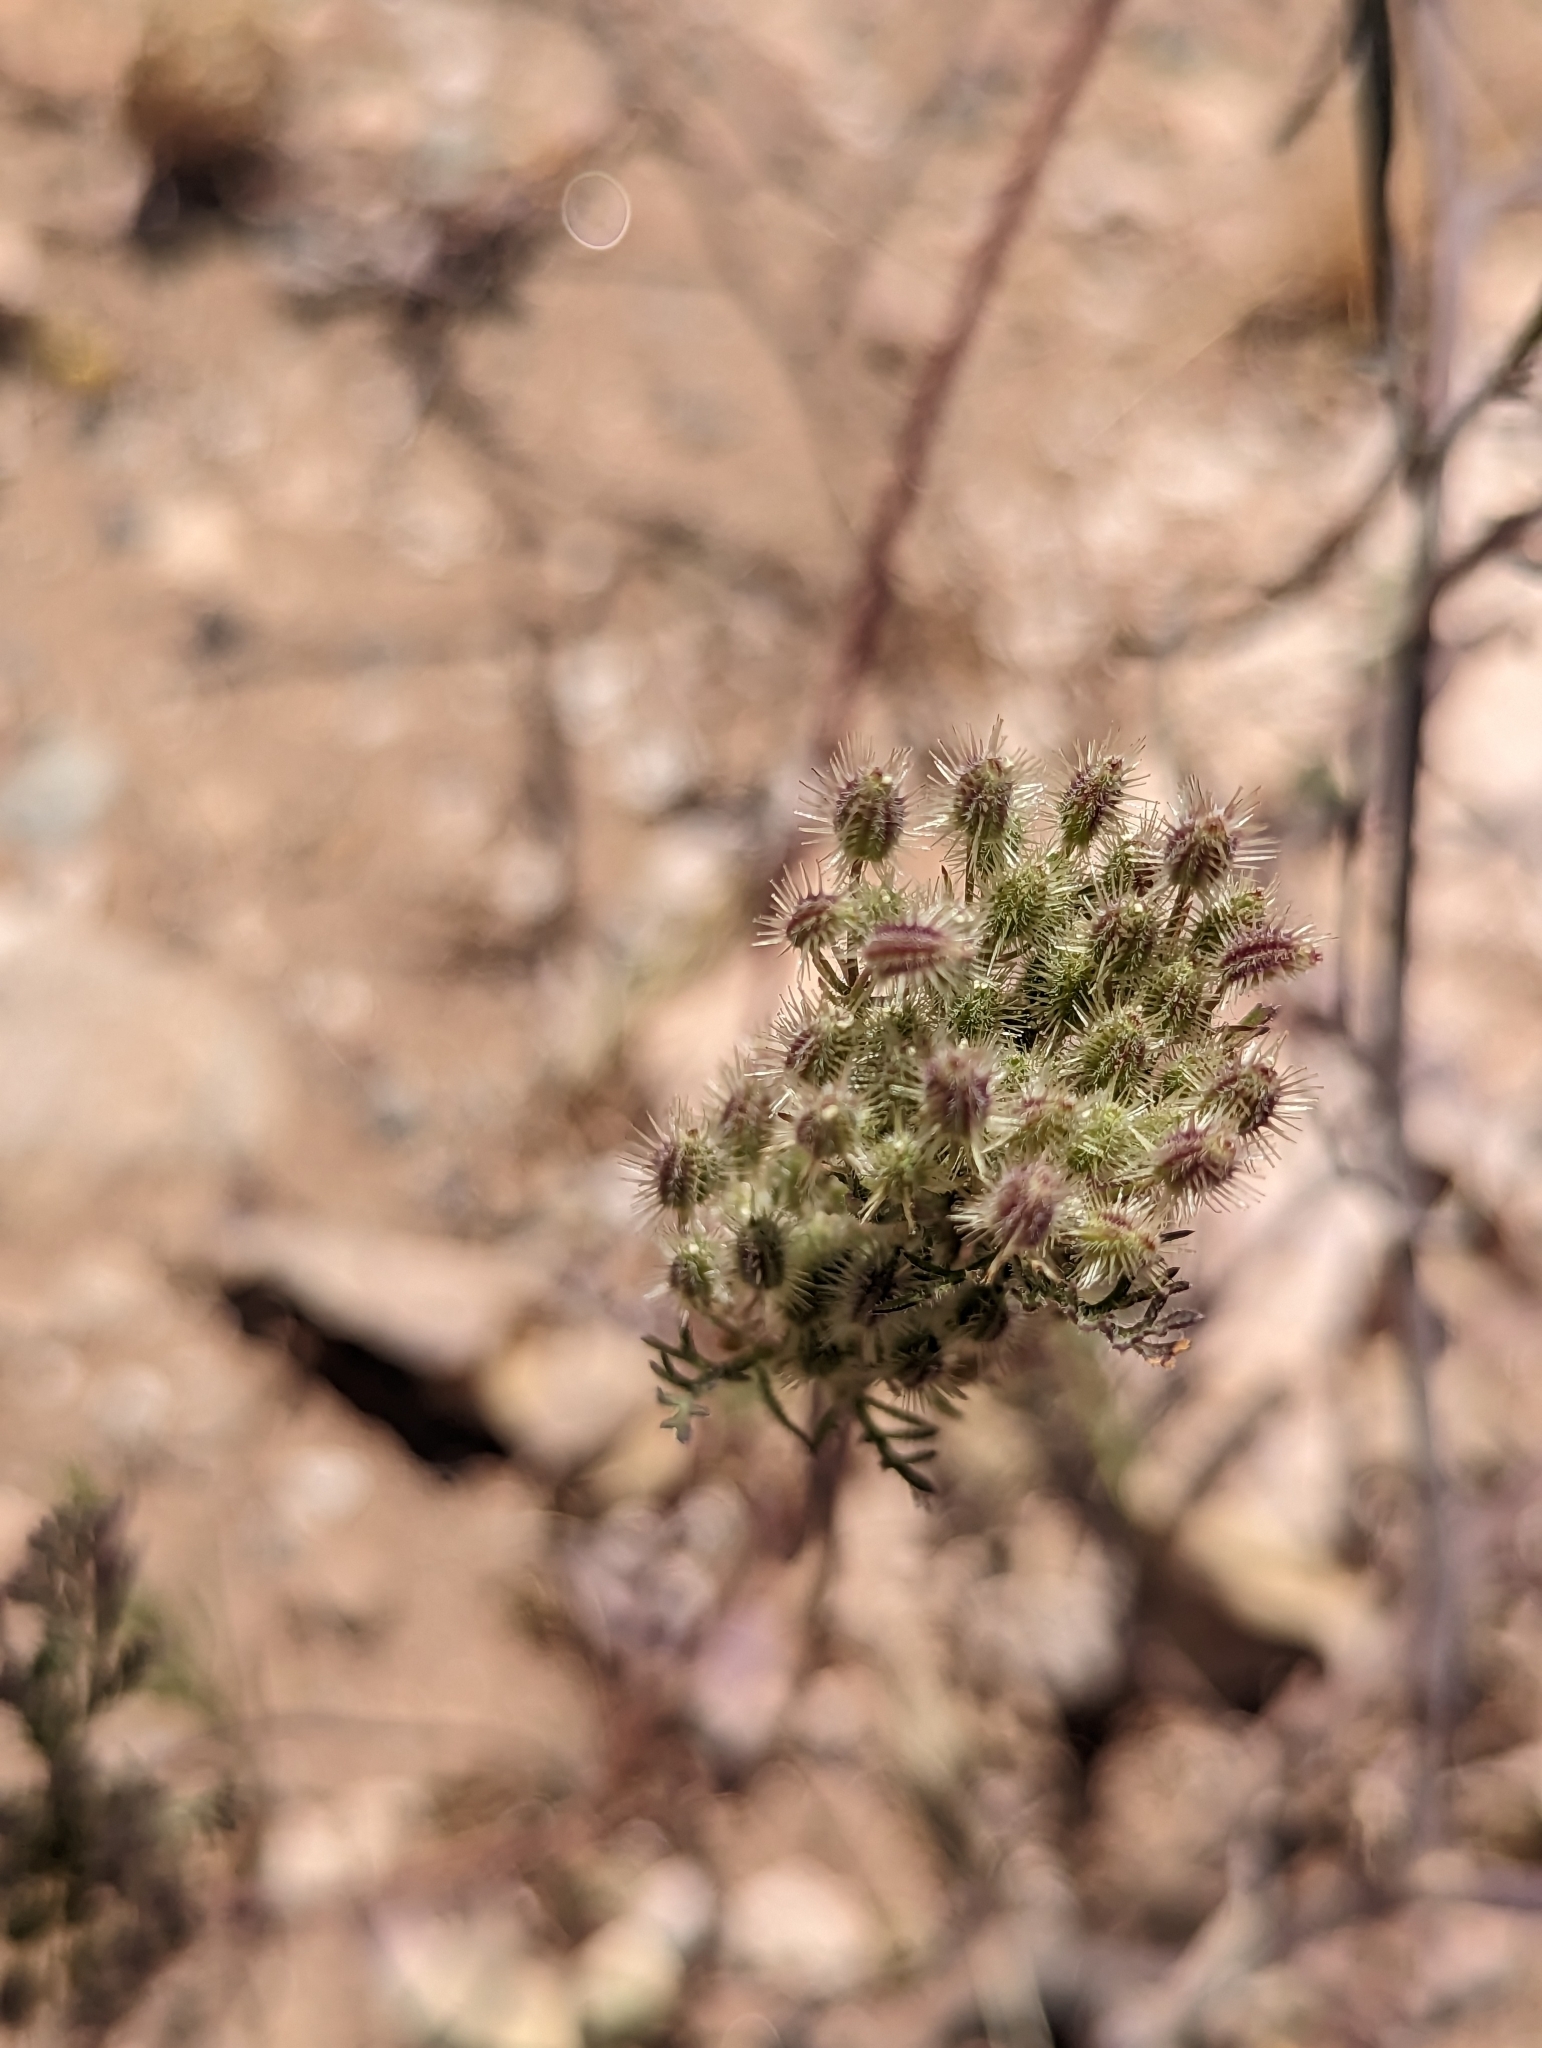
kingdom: Plantae
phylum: Tracheophyta
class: Magnoliopsida
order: Apiales
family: Apiaceae
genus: Daucus
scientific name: Daucus pusillus
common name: Southwest wild carrot
